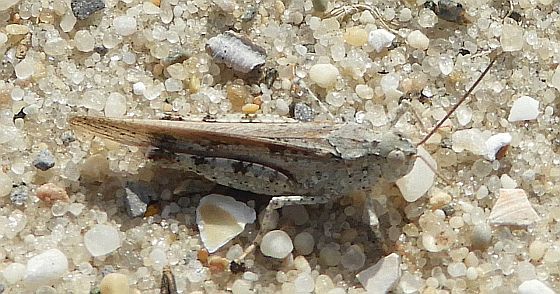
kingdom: Animalia
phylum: Arthropoda
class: Insecta
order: Orthoptera
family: Acrididae
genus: Trimerotropis
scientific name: Trimerotropis maritima
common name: Seaside locust
